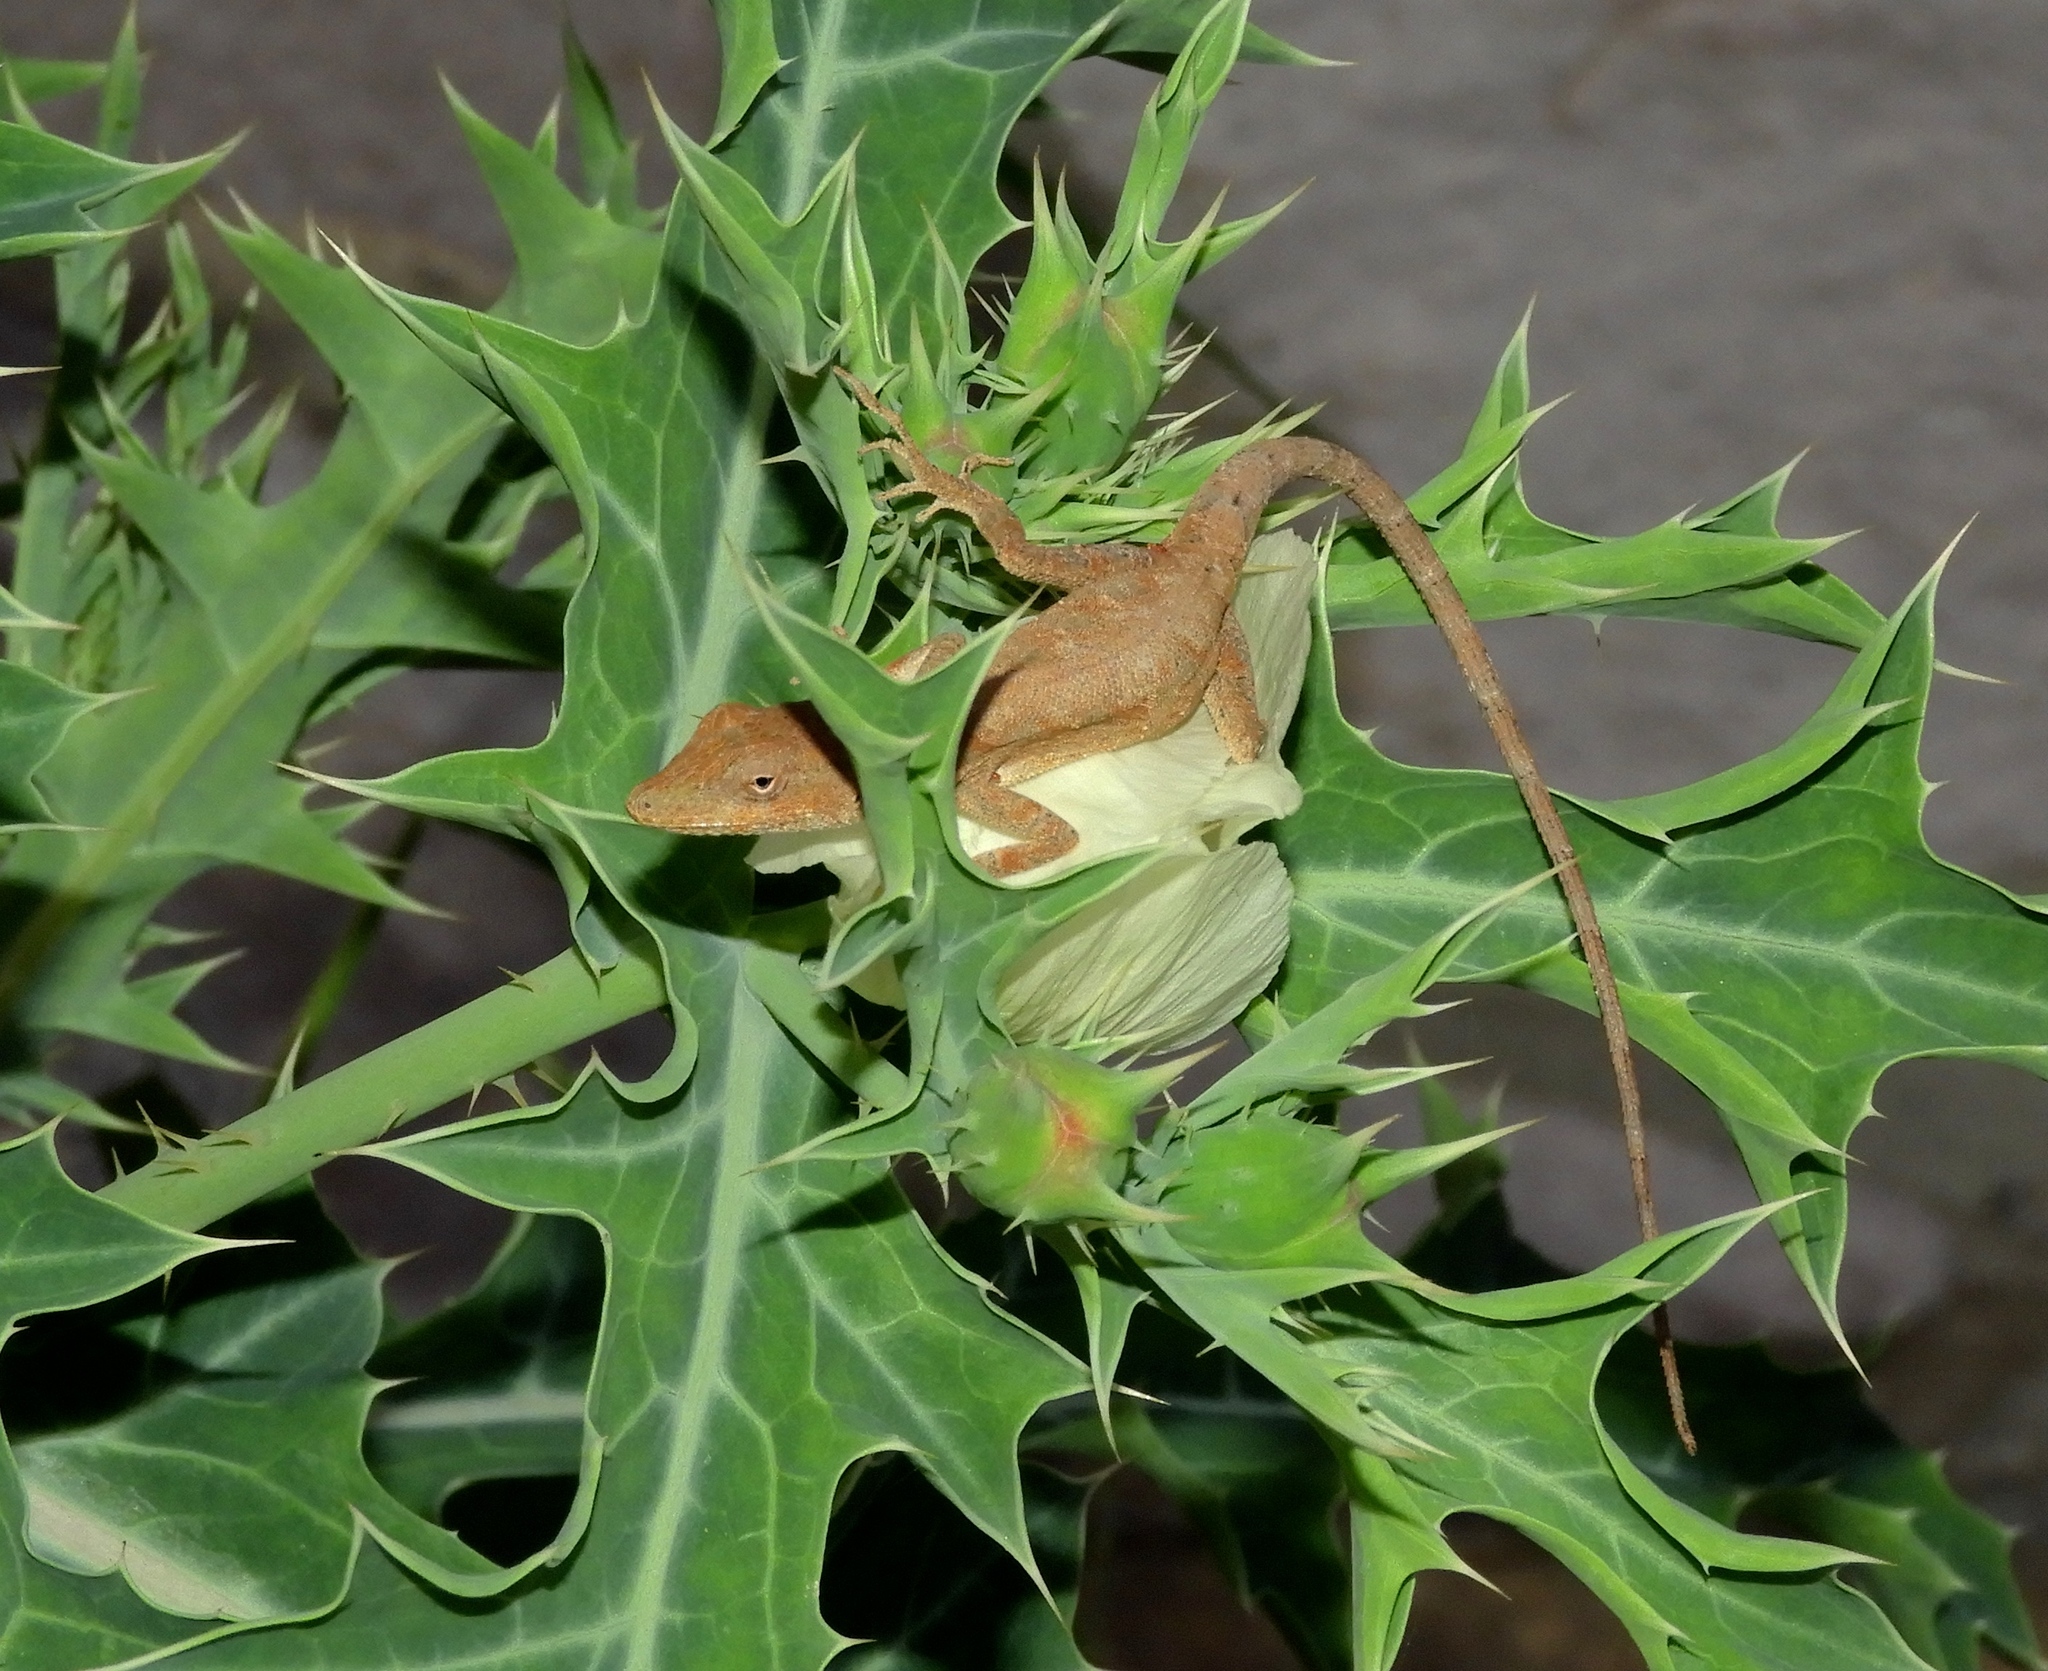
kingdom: Animalia
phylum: Chordata
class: Squamata
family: Dactyloidae
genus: Anolis
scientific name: Anolis nebulosus
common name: Clouded anole
